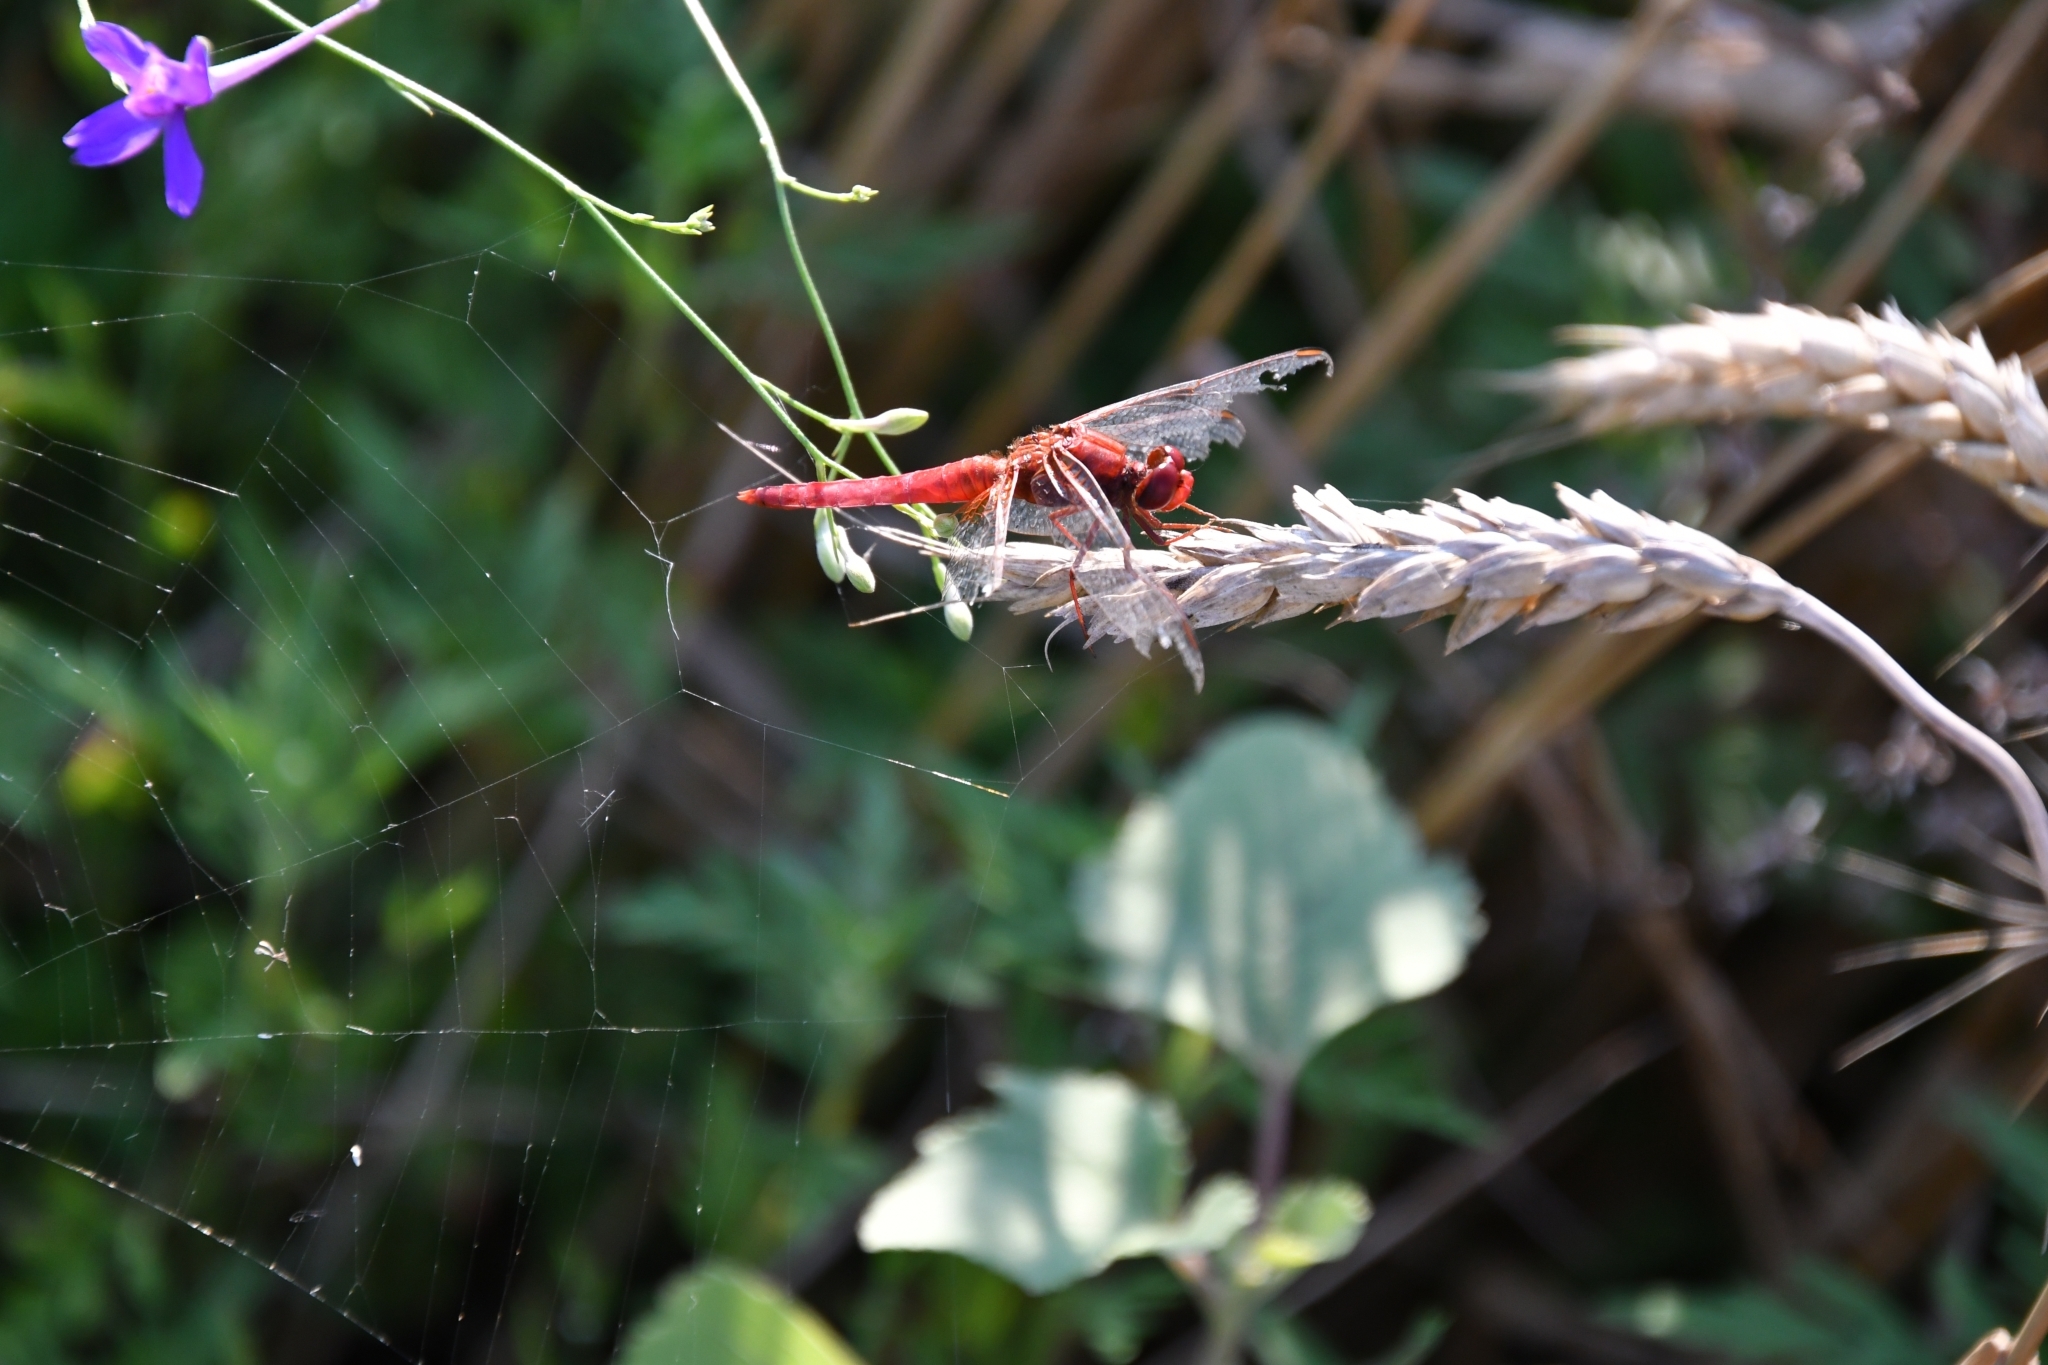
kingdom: Animalia
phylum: Arthropoda
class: Insecta
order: Odonata
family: Libellulidae
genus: Crocothemis
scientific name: Crocothemis erythraea
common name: Scarlet dragonfly
